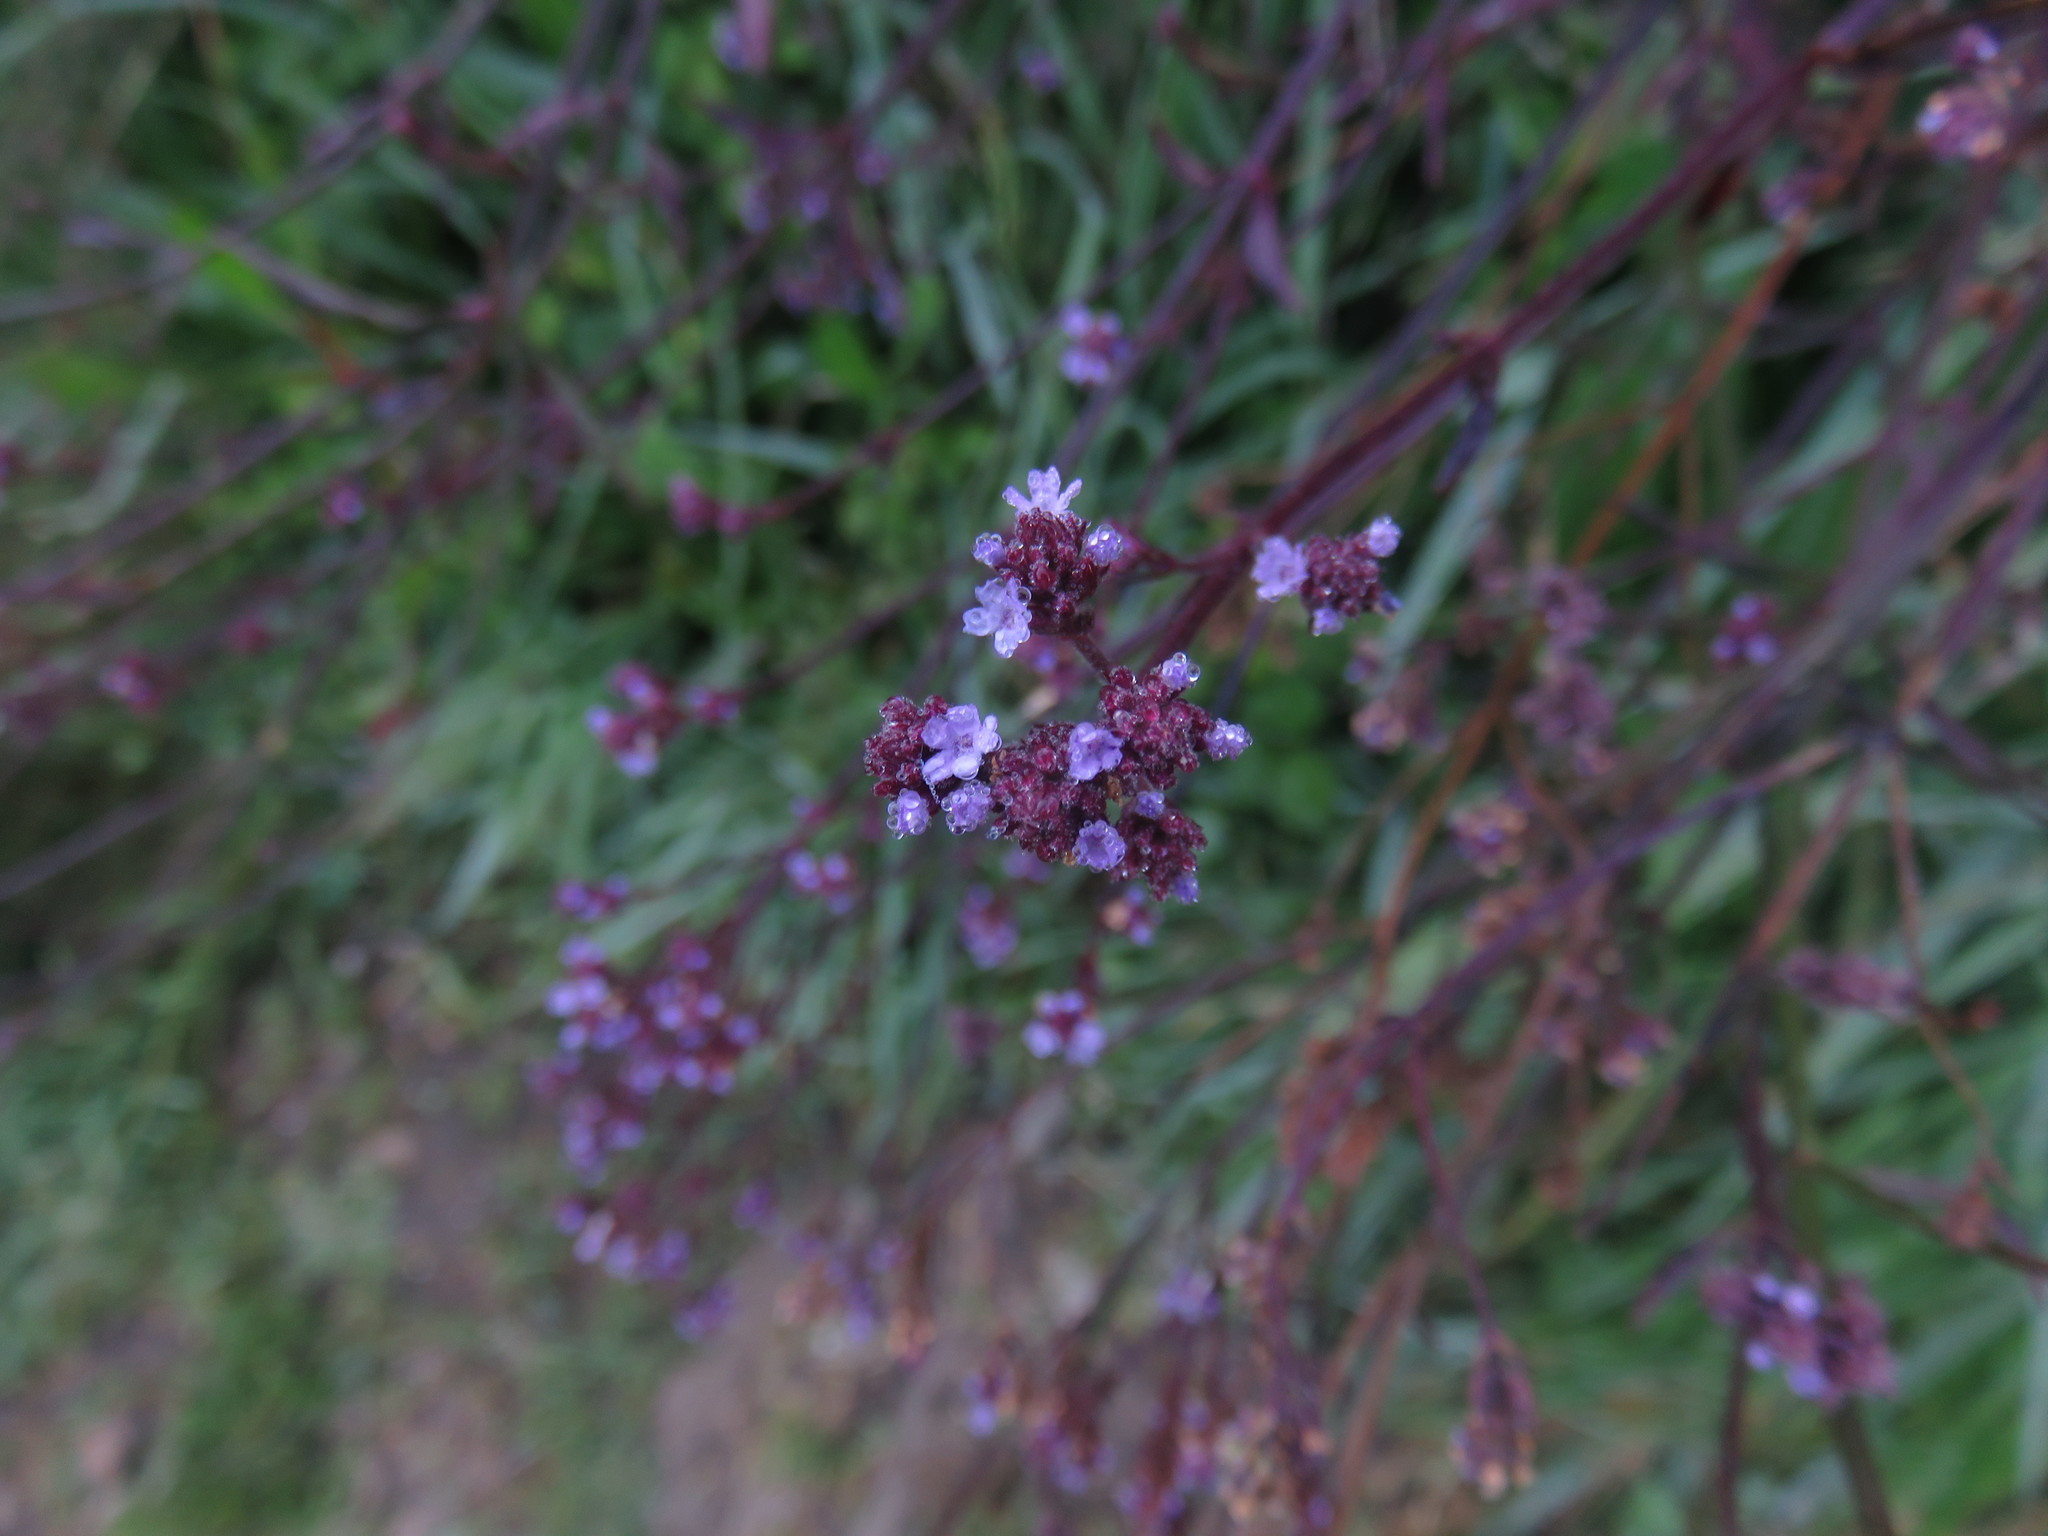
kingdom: Plantae
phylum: Tracheophyta
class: Magnoliopsida
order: Lamiales
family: Verbenaceae
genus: Verbena
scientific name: Verbena litoralis
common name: Seashore vervain
